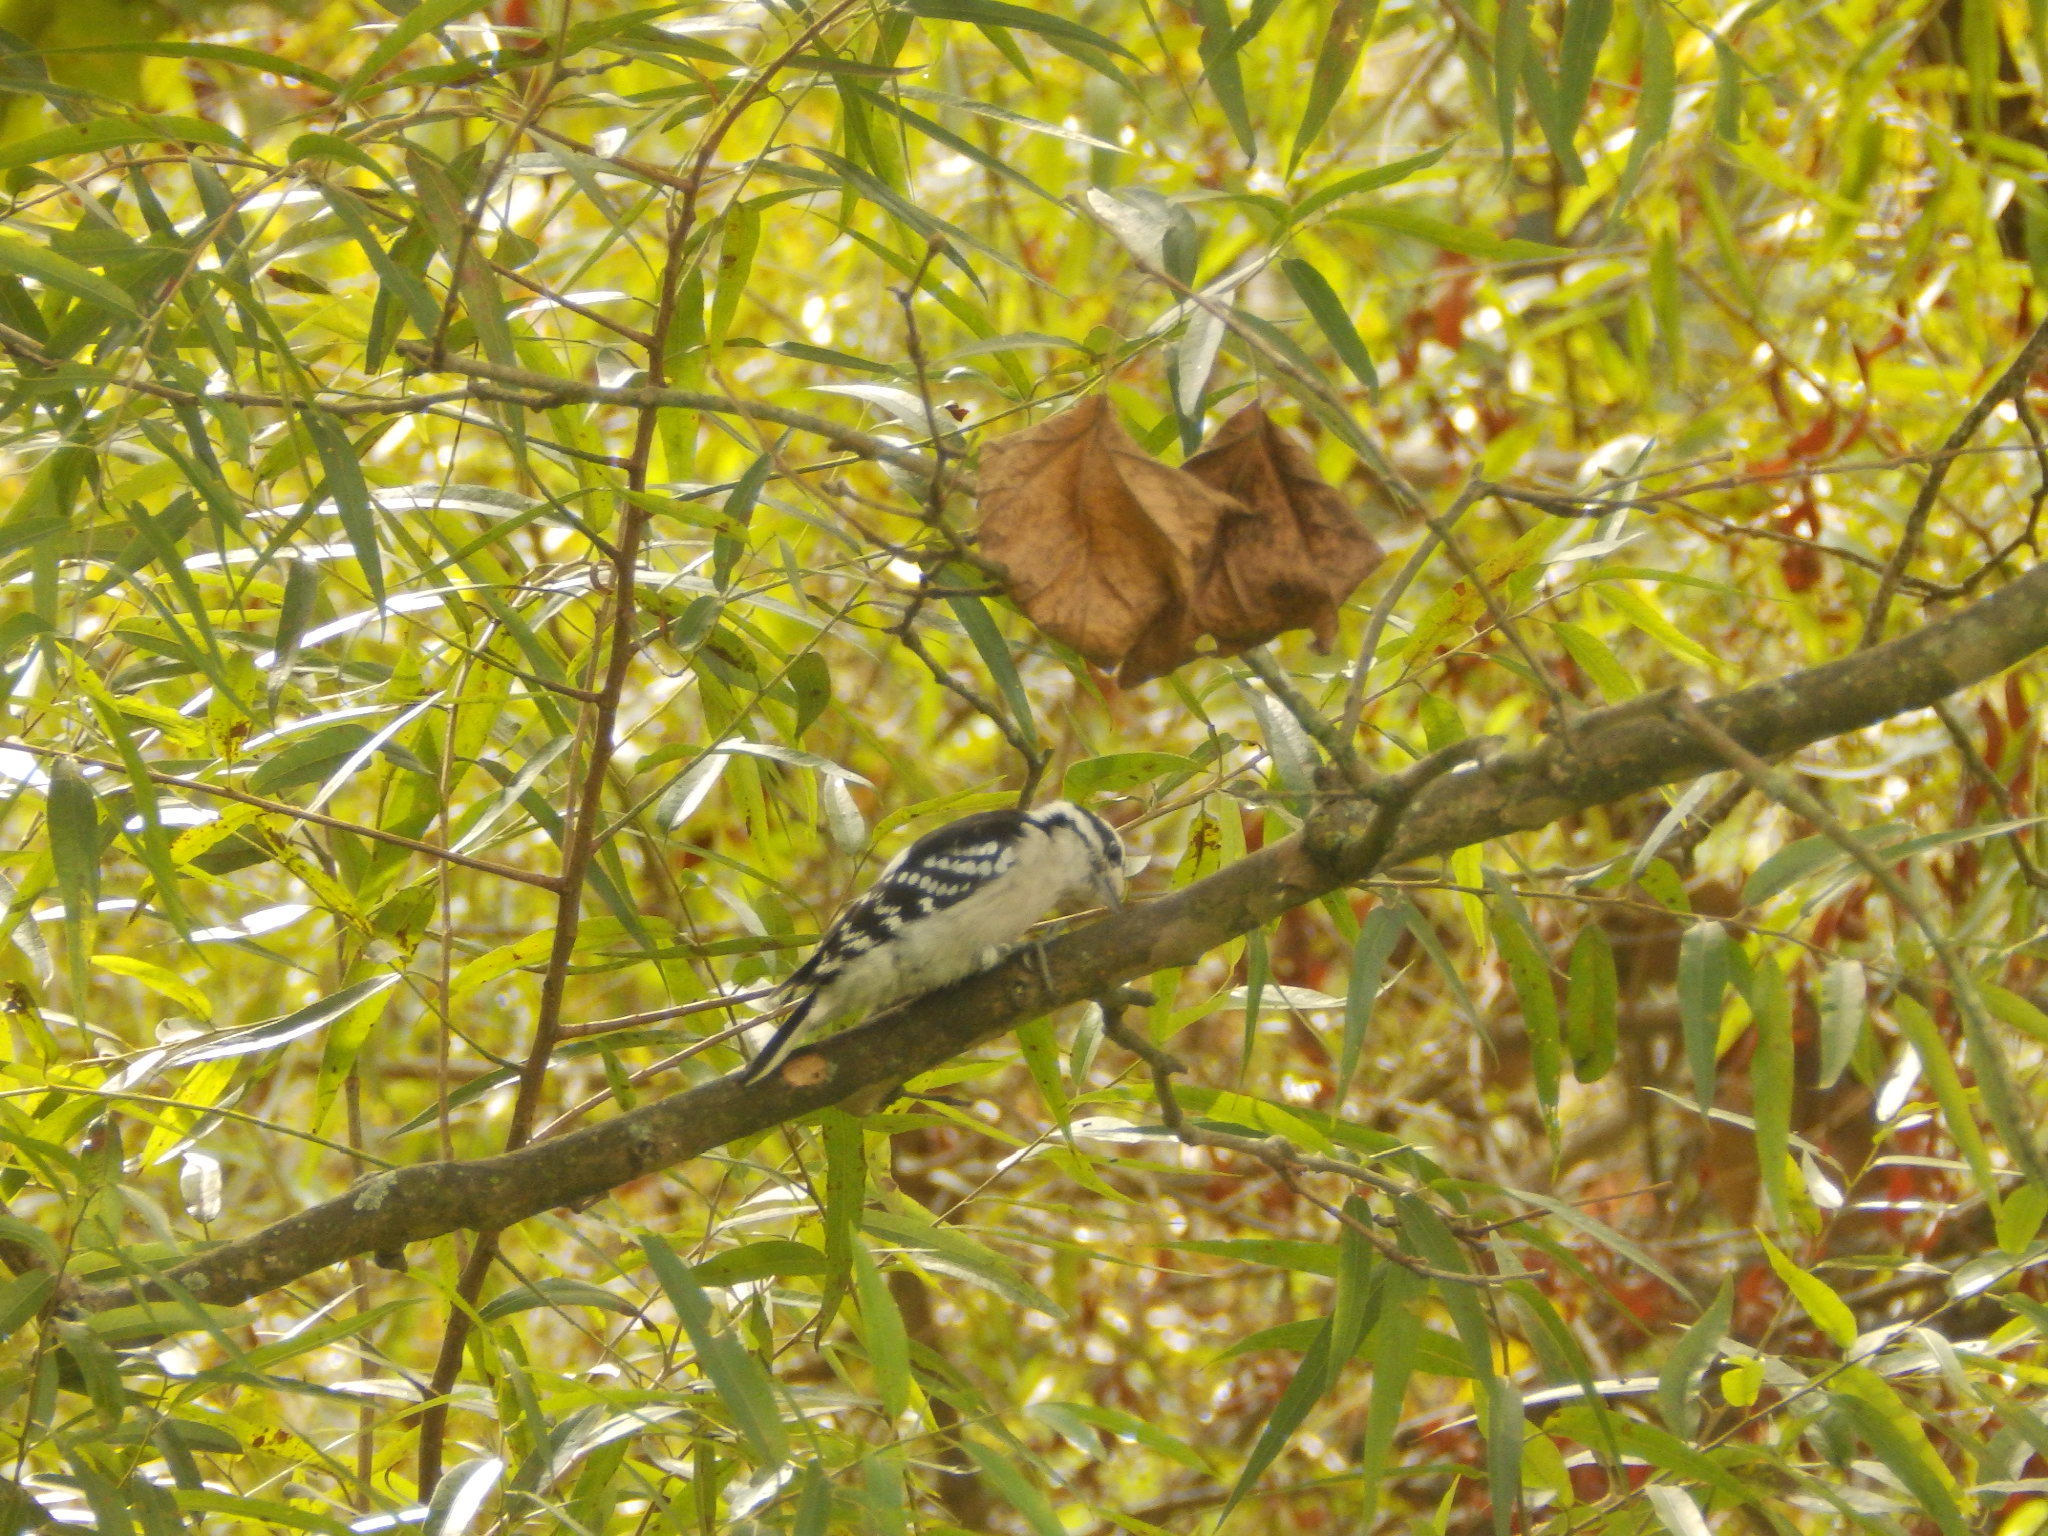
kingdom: Animalia
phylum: Chordata
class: Aves
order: Piciformes
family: Picidae
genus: Dryobates
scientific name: Dryobates pubescens
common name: Downy woodpecker
